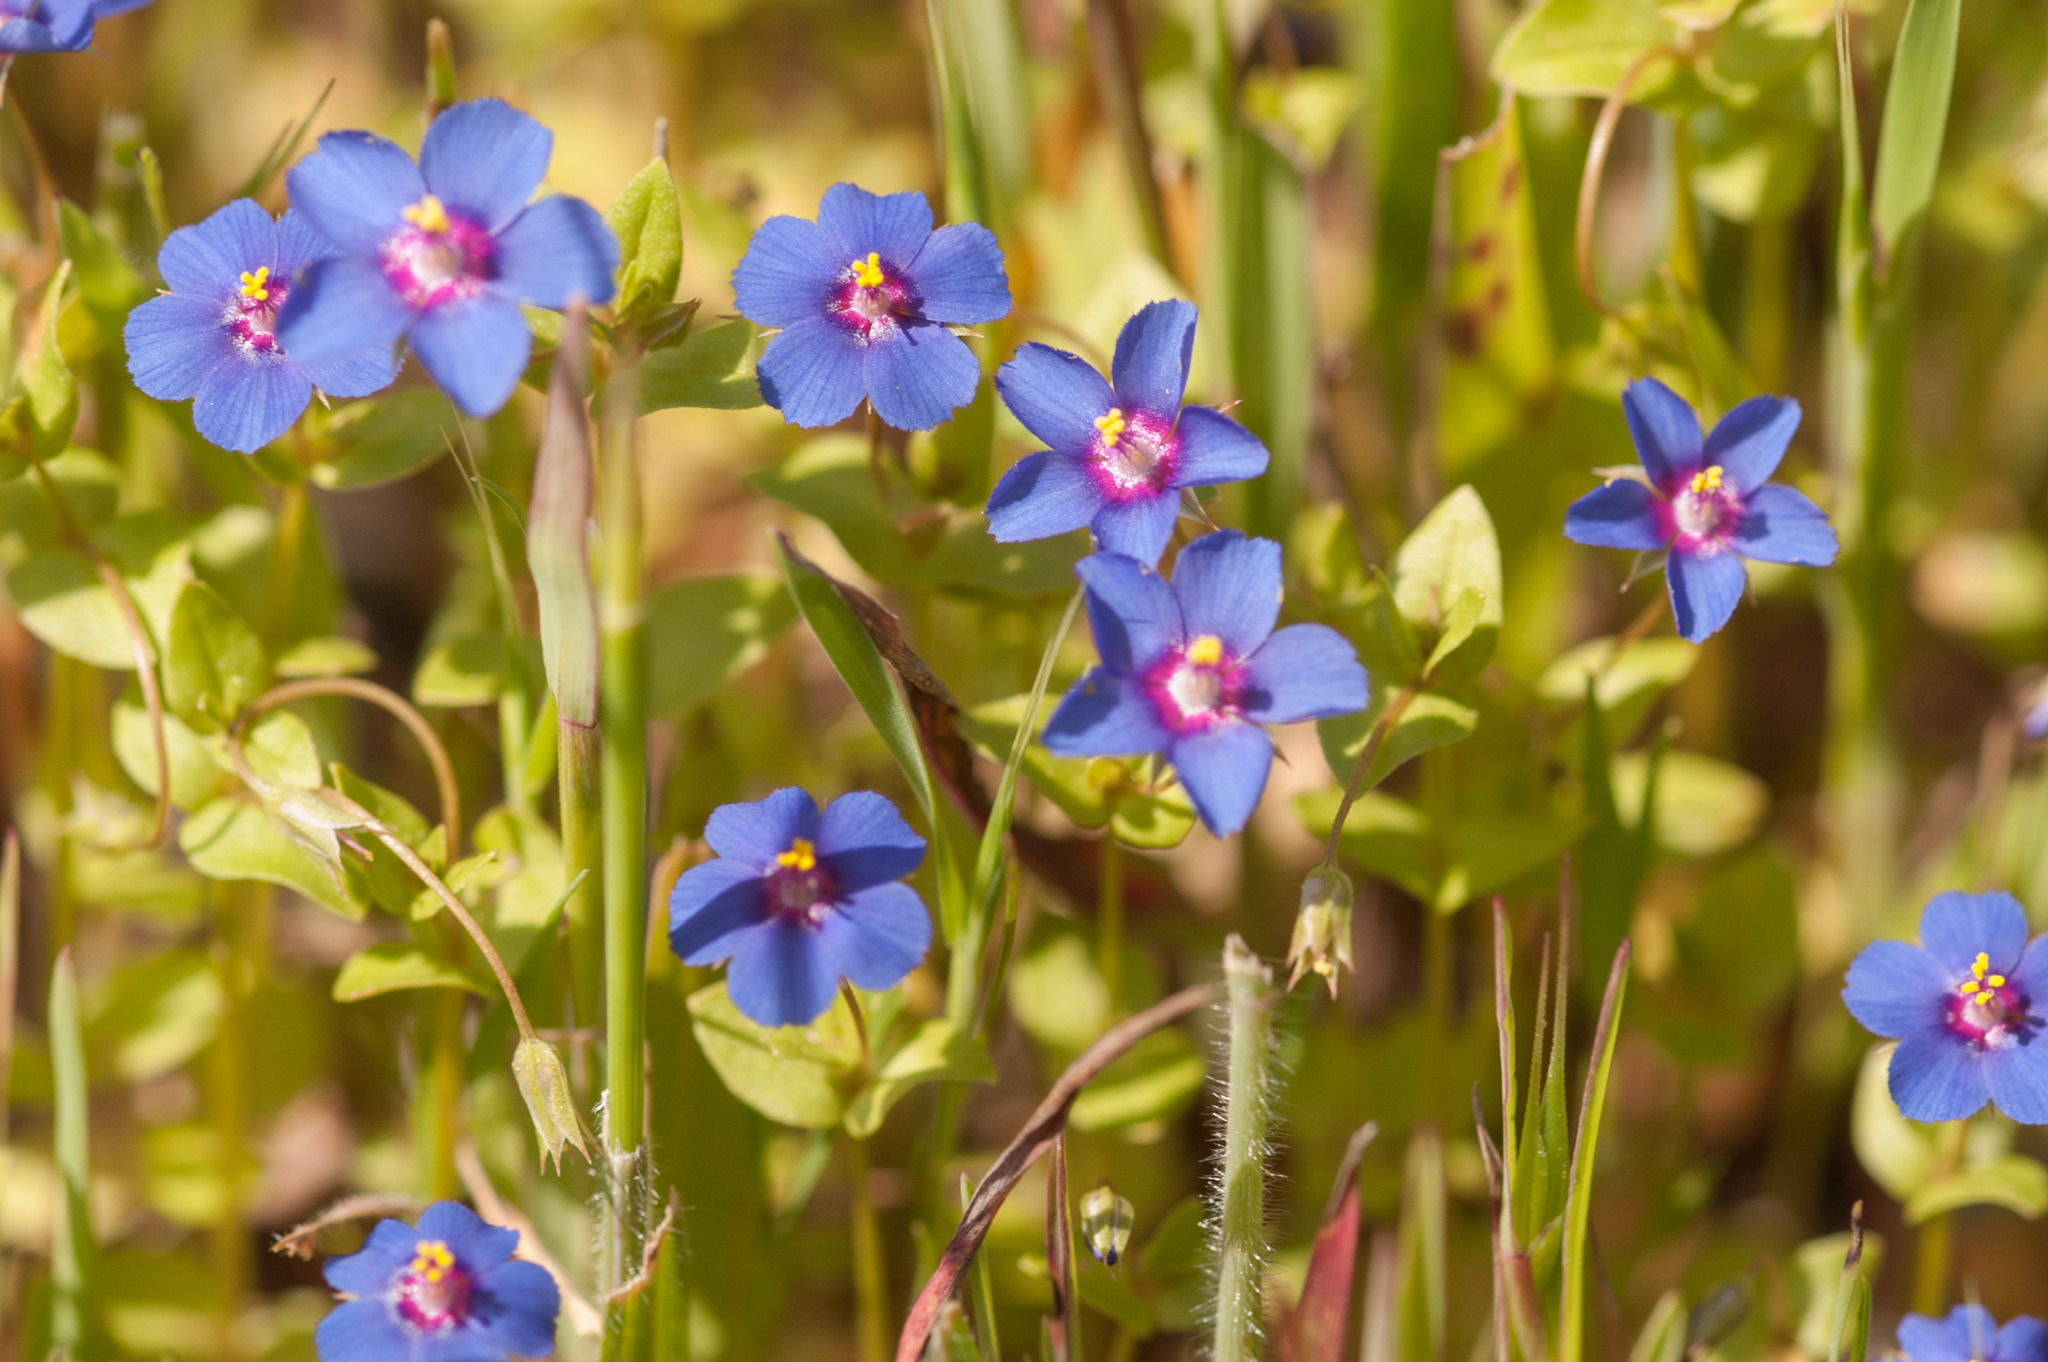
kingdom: Plantae
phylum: Tracheophyta
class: Magnoliopsida
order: Ericales
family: Primulaceae
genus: Lysimachia
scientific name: Lysimachia loeflingii
